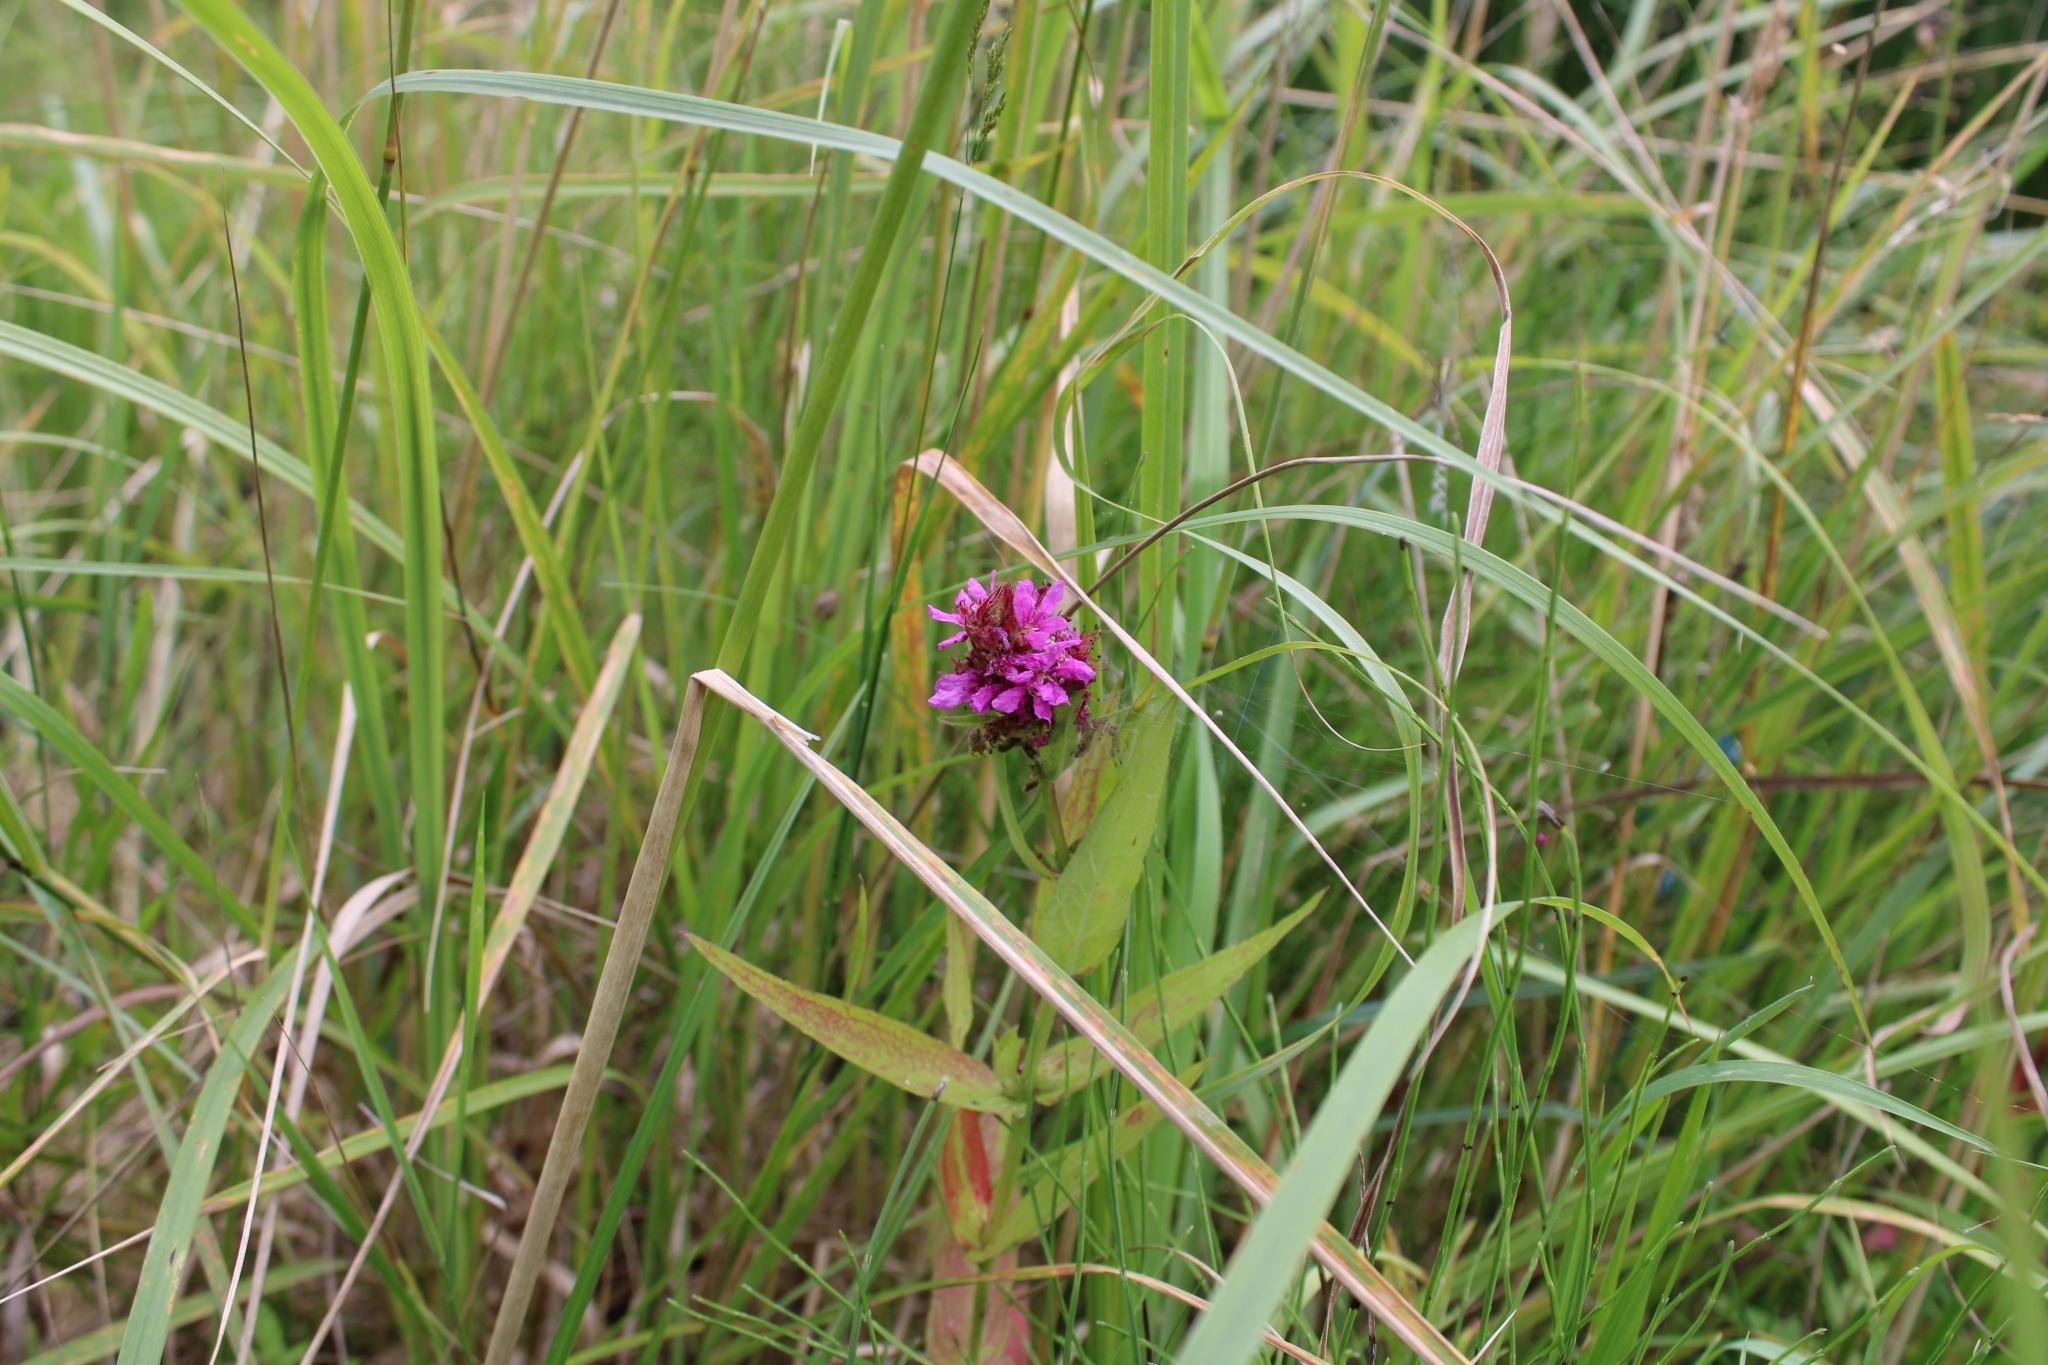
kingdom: Plantae
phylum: Tracheophyta
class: Magnoliopsida
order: Myrtales
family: Lythraceae
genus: Lythrum
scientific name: Lythrum salicaria
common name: Purple loosestrife
